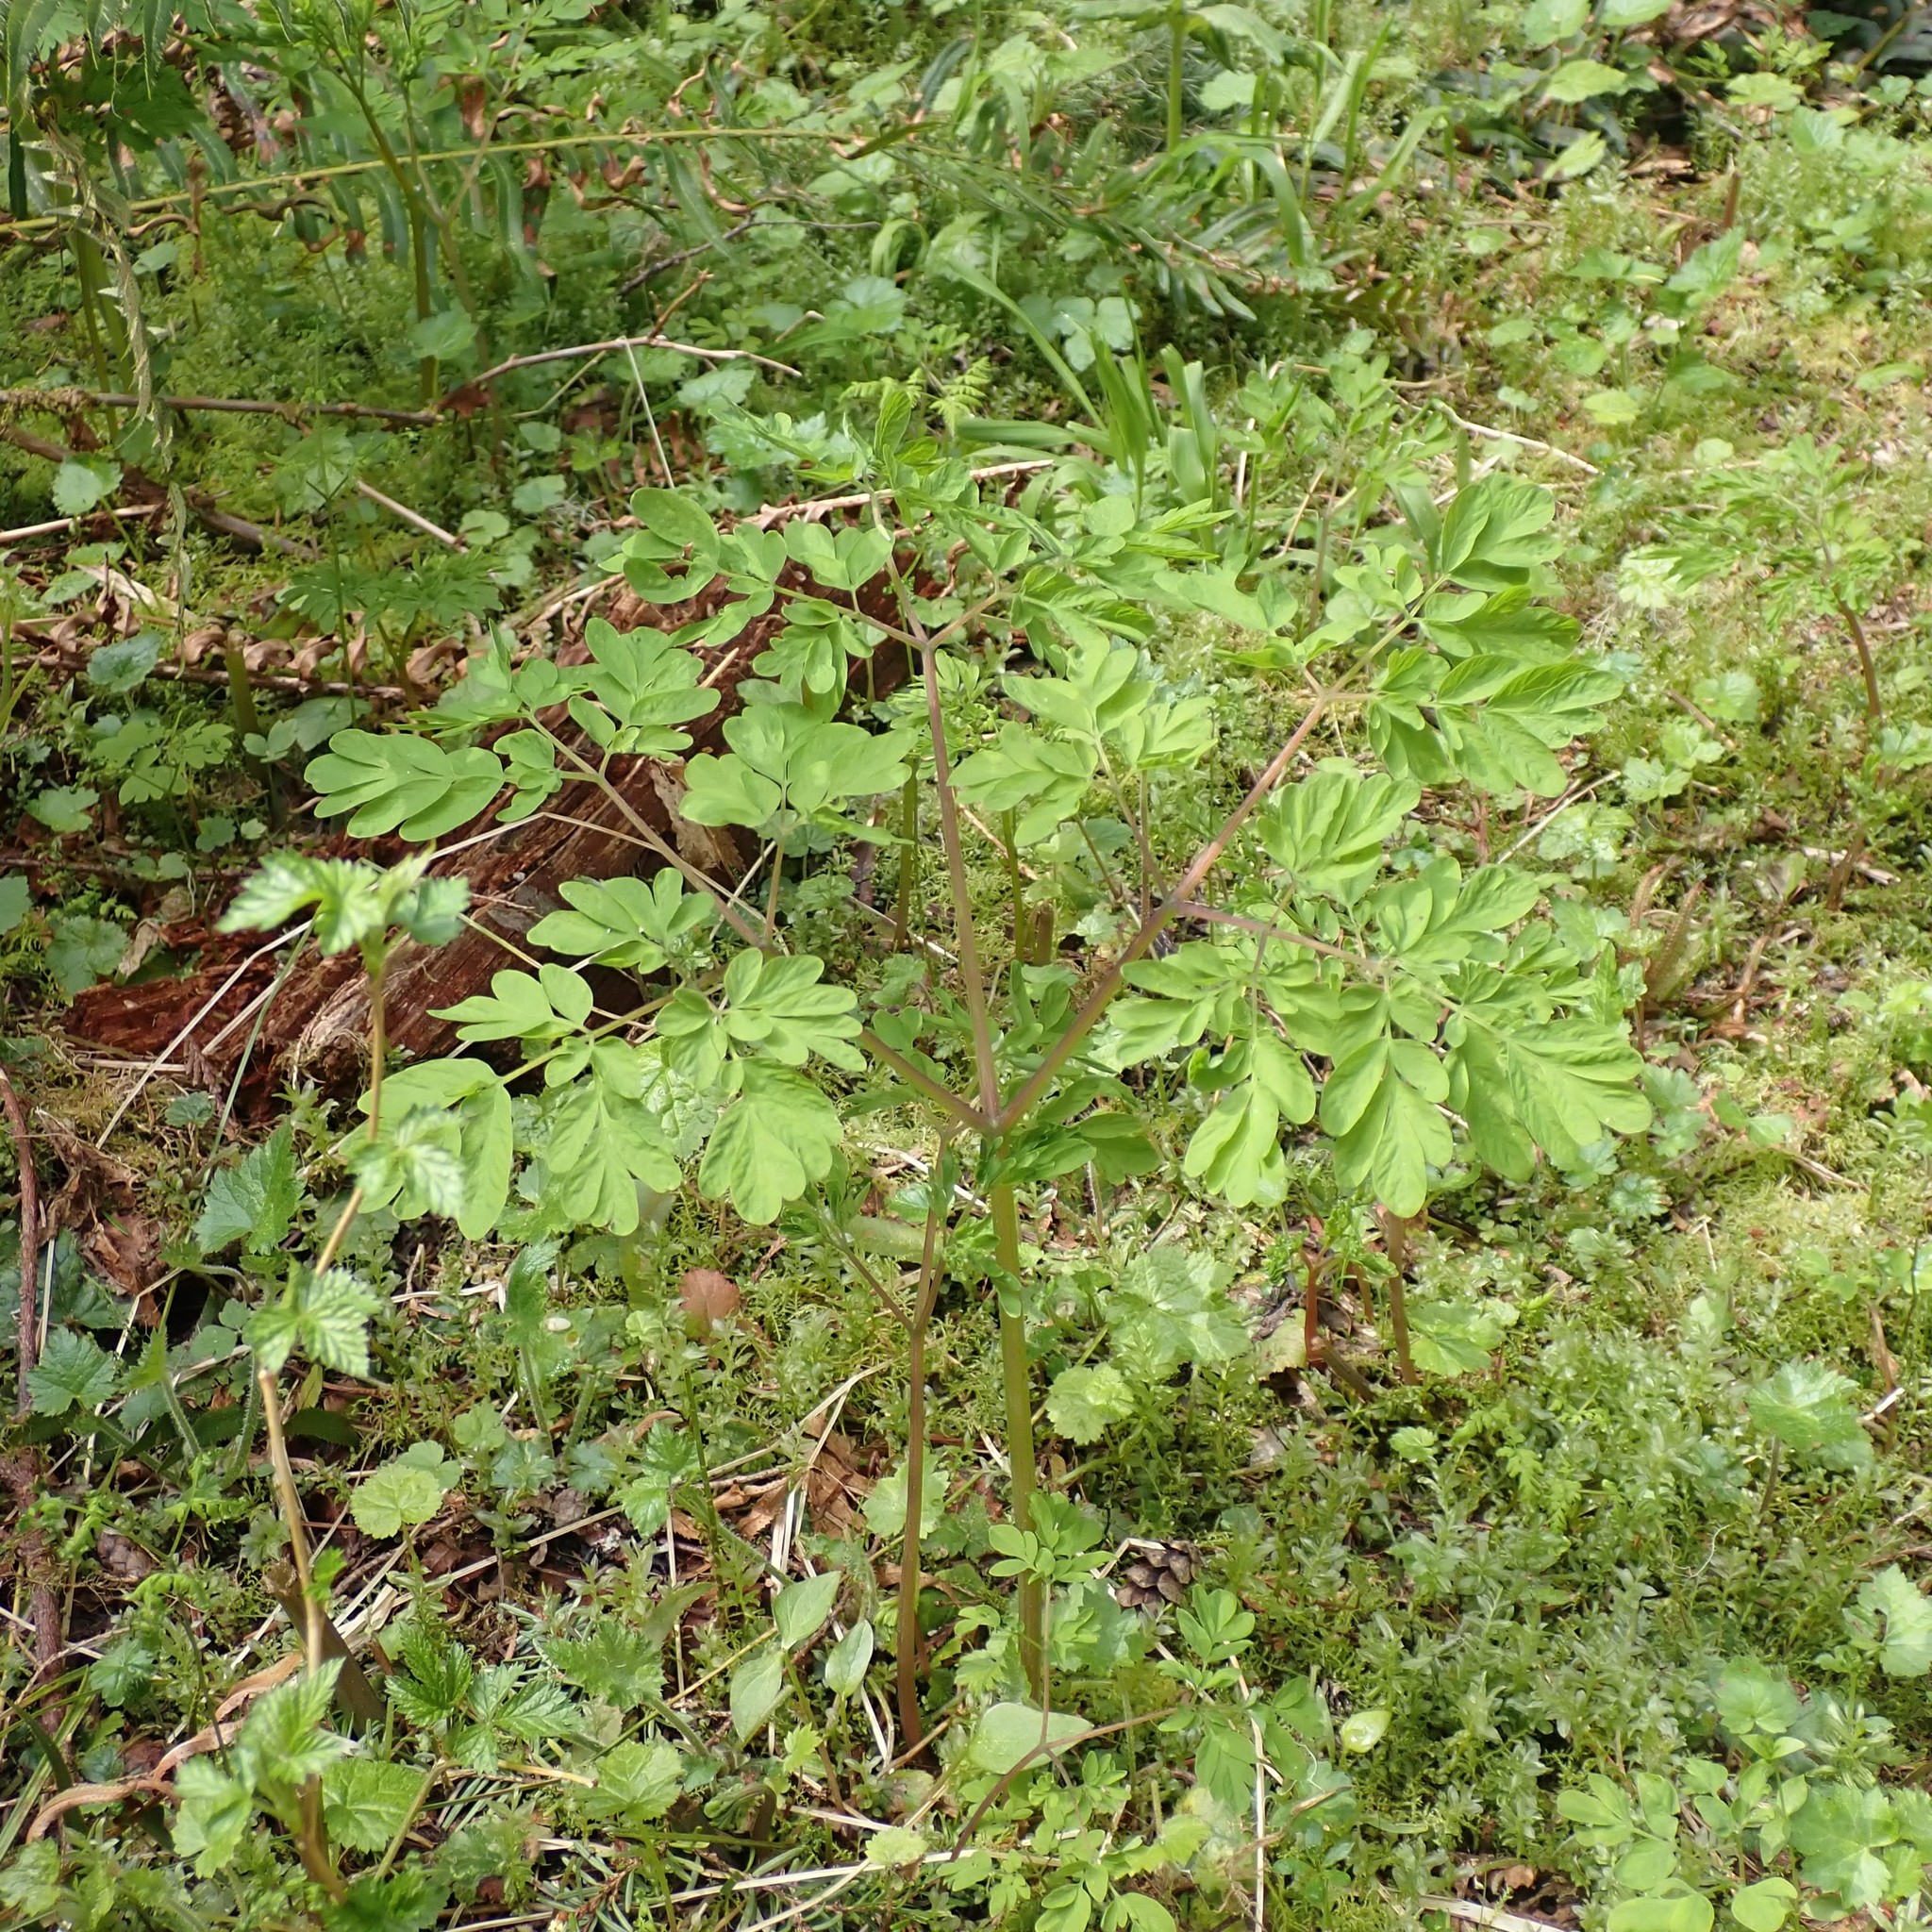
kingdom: Plantae
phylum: Tracheophyta
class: Magnoliopsida
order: Ranunculales
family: Papaveraceae
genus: Corydalis
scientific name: Corydalis scouleri
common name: Scouler's corydalis
